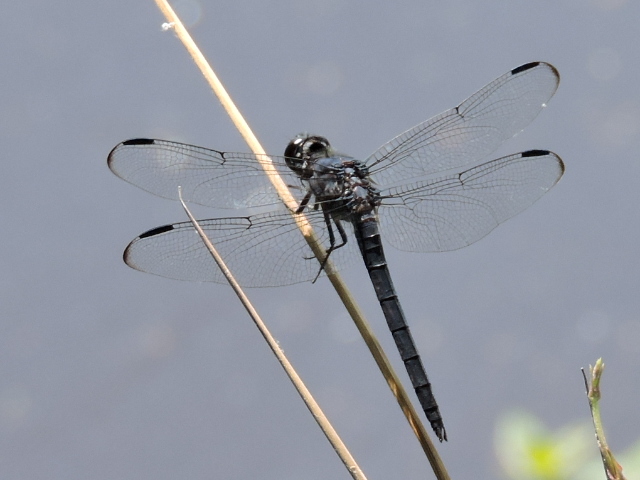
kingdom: Animalia
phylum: Arthropoda
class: Insecta
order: Odonata
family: Libellulidae
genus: Libellula
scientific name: Libellula incesta
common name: Slaty skimmer
